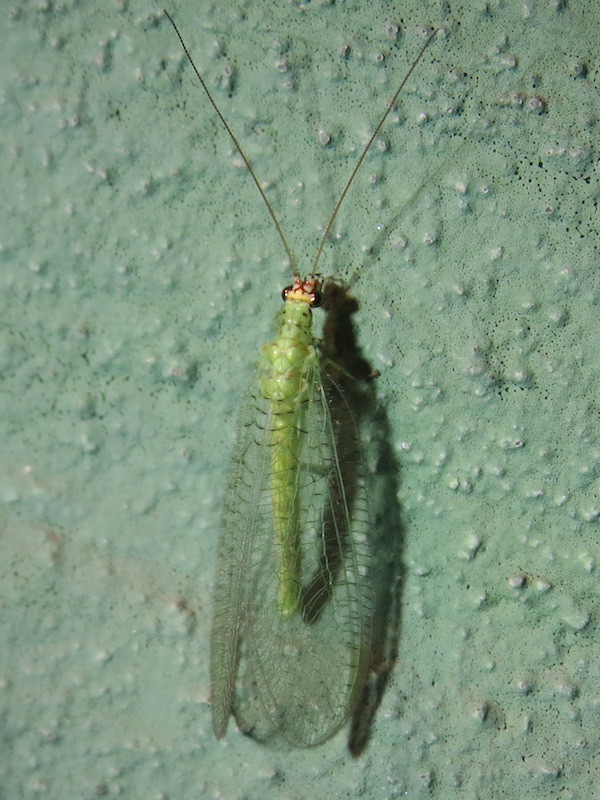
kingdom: Animalia
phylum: Arthropoda
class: Insecta
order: Neuroptera
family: Chrysopidae
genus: Chrysopa
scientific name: Chrysopa oculata
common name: Golden-eyed lacewing
